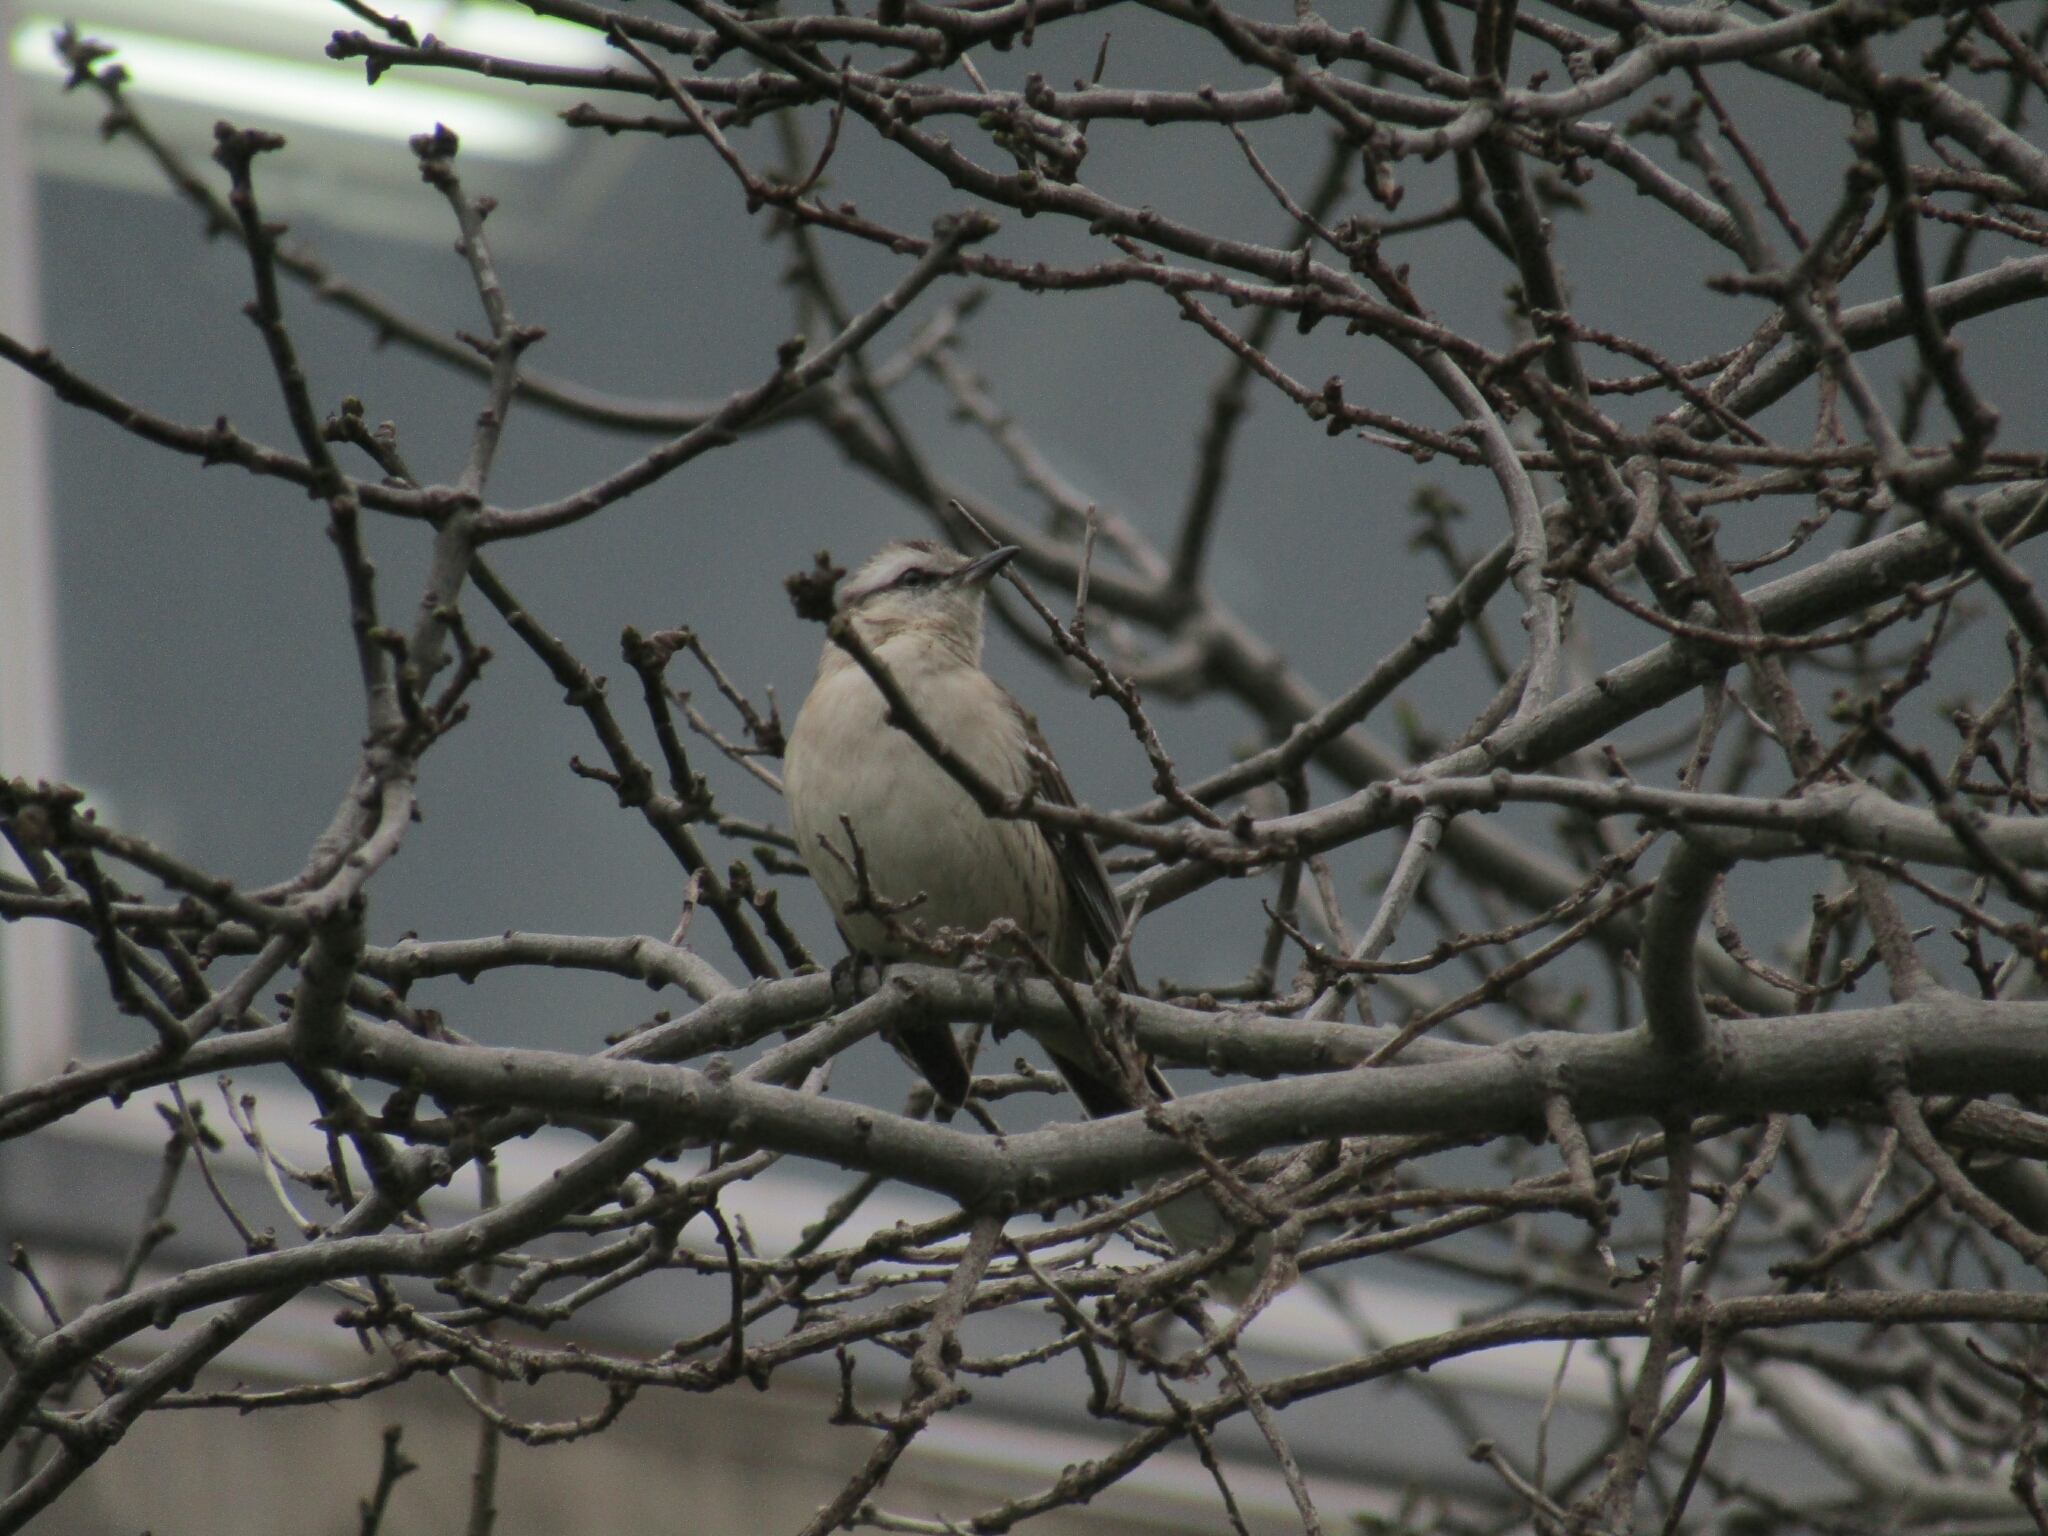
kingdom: Animalia
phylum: Chordata
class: Aves
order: Passeriformes
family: Mimidae
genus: Mimus
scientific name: Mimus saturninus
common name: Chalk-browed mockingbird
